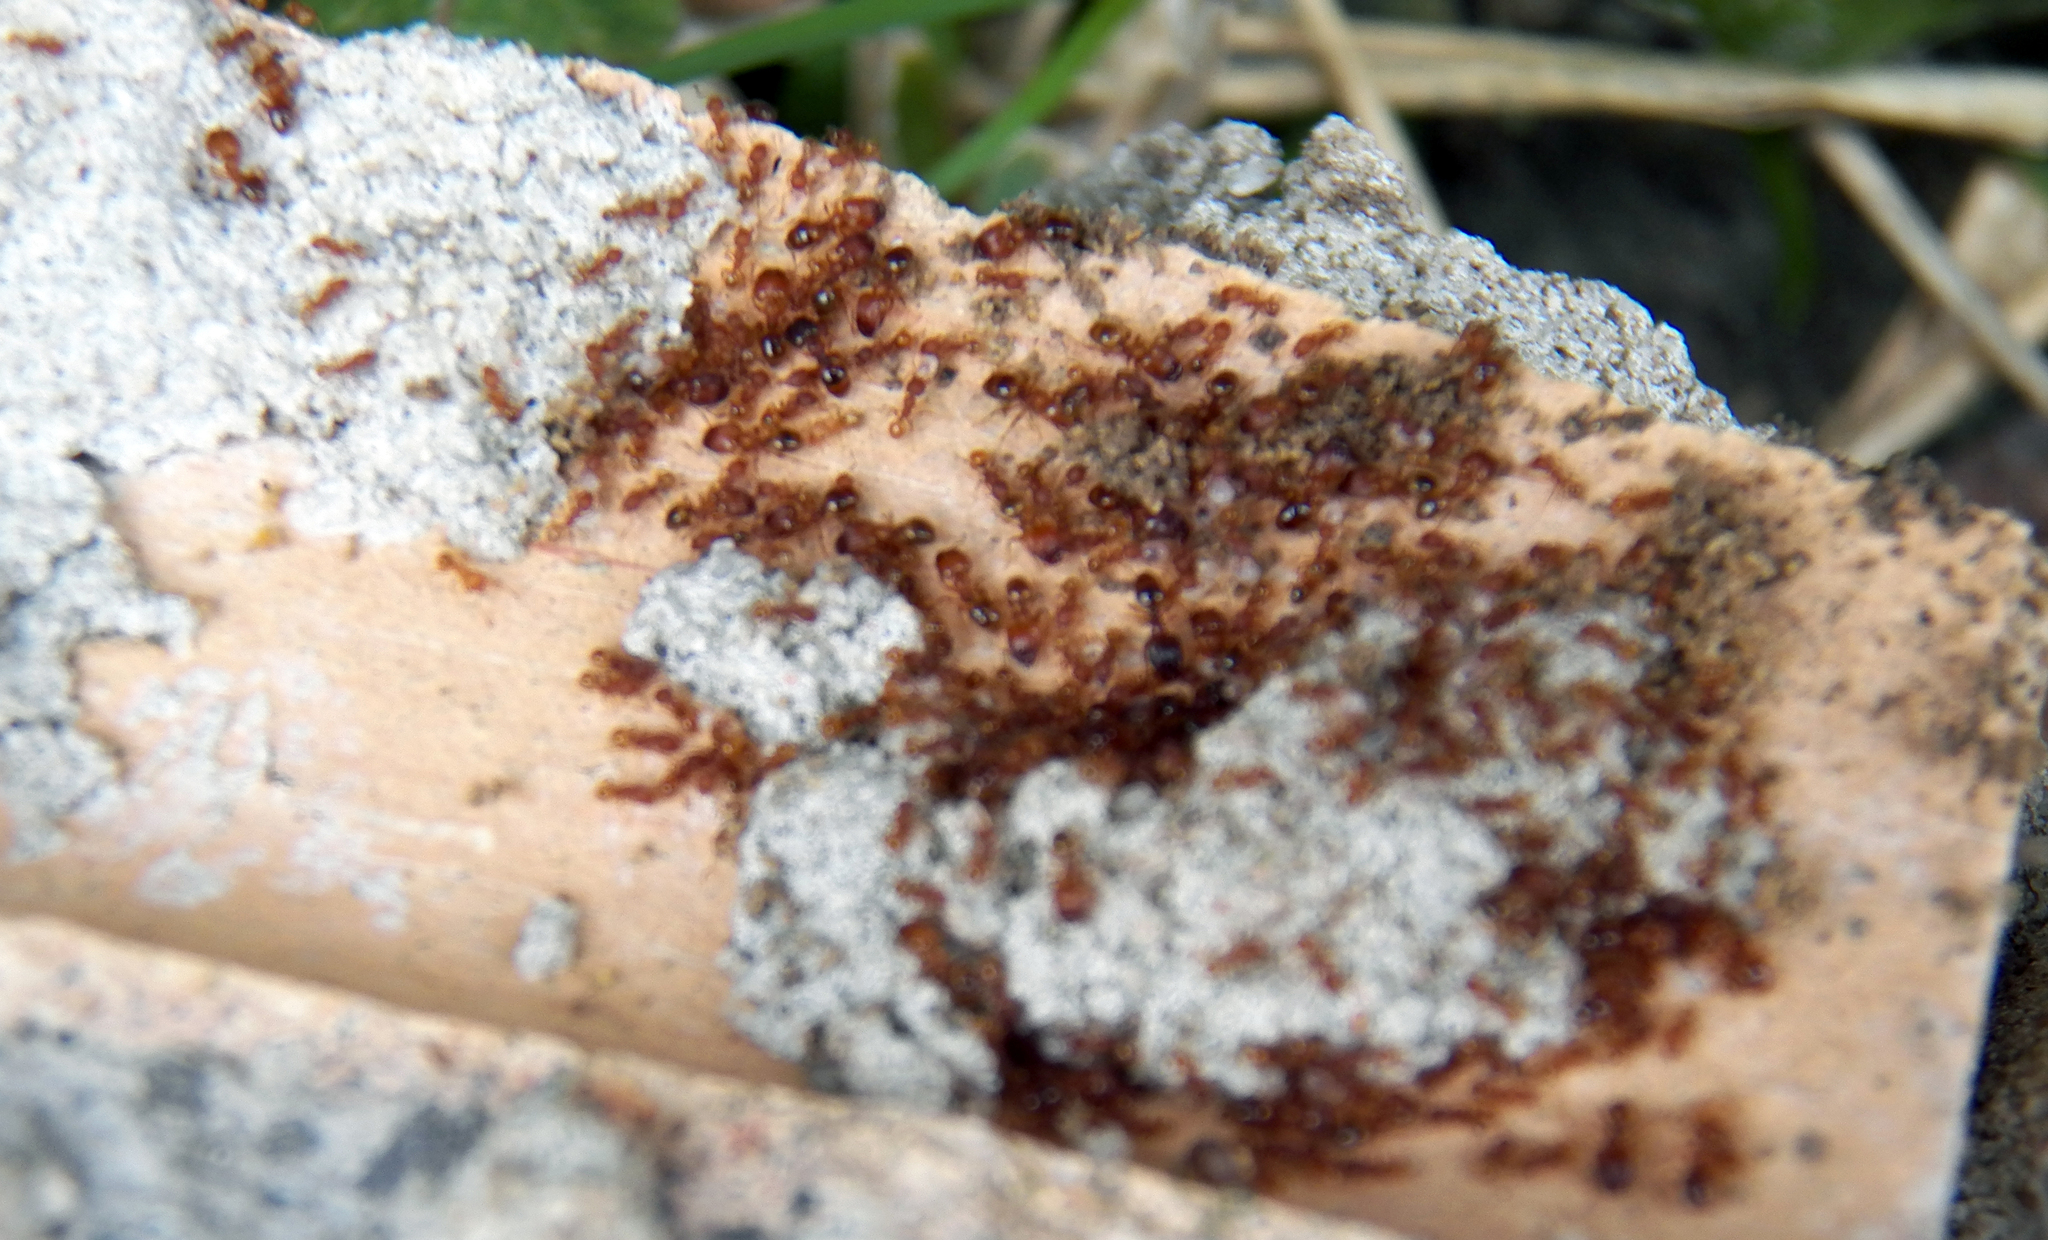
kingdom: Animalia
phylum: Arthropoda
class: Insecta
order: Hymenoptera
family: Formicidae
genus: Pheidole
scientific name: Pheidole navigans
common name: Navigating big-headed ant
